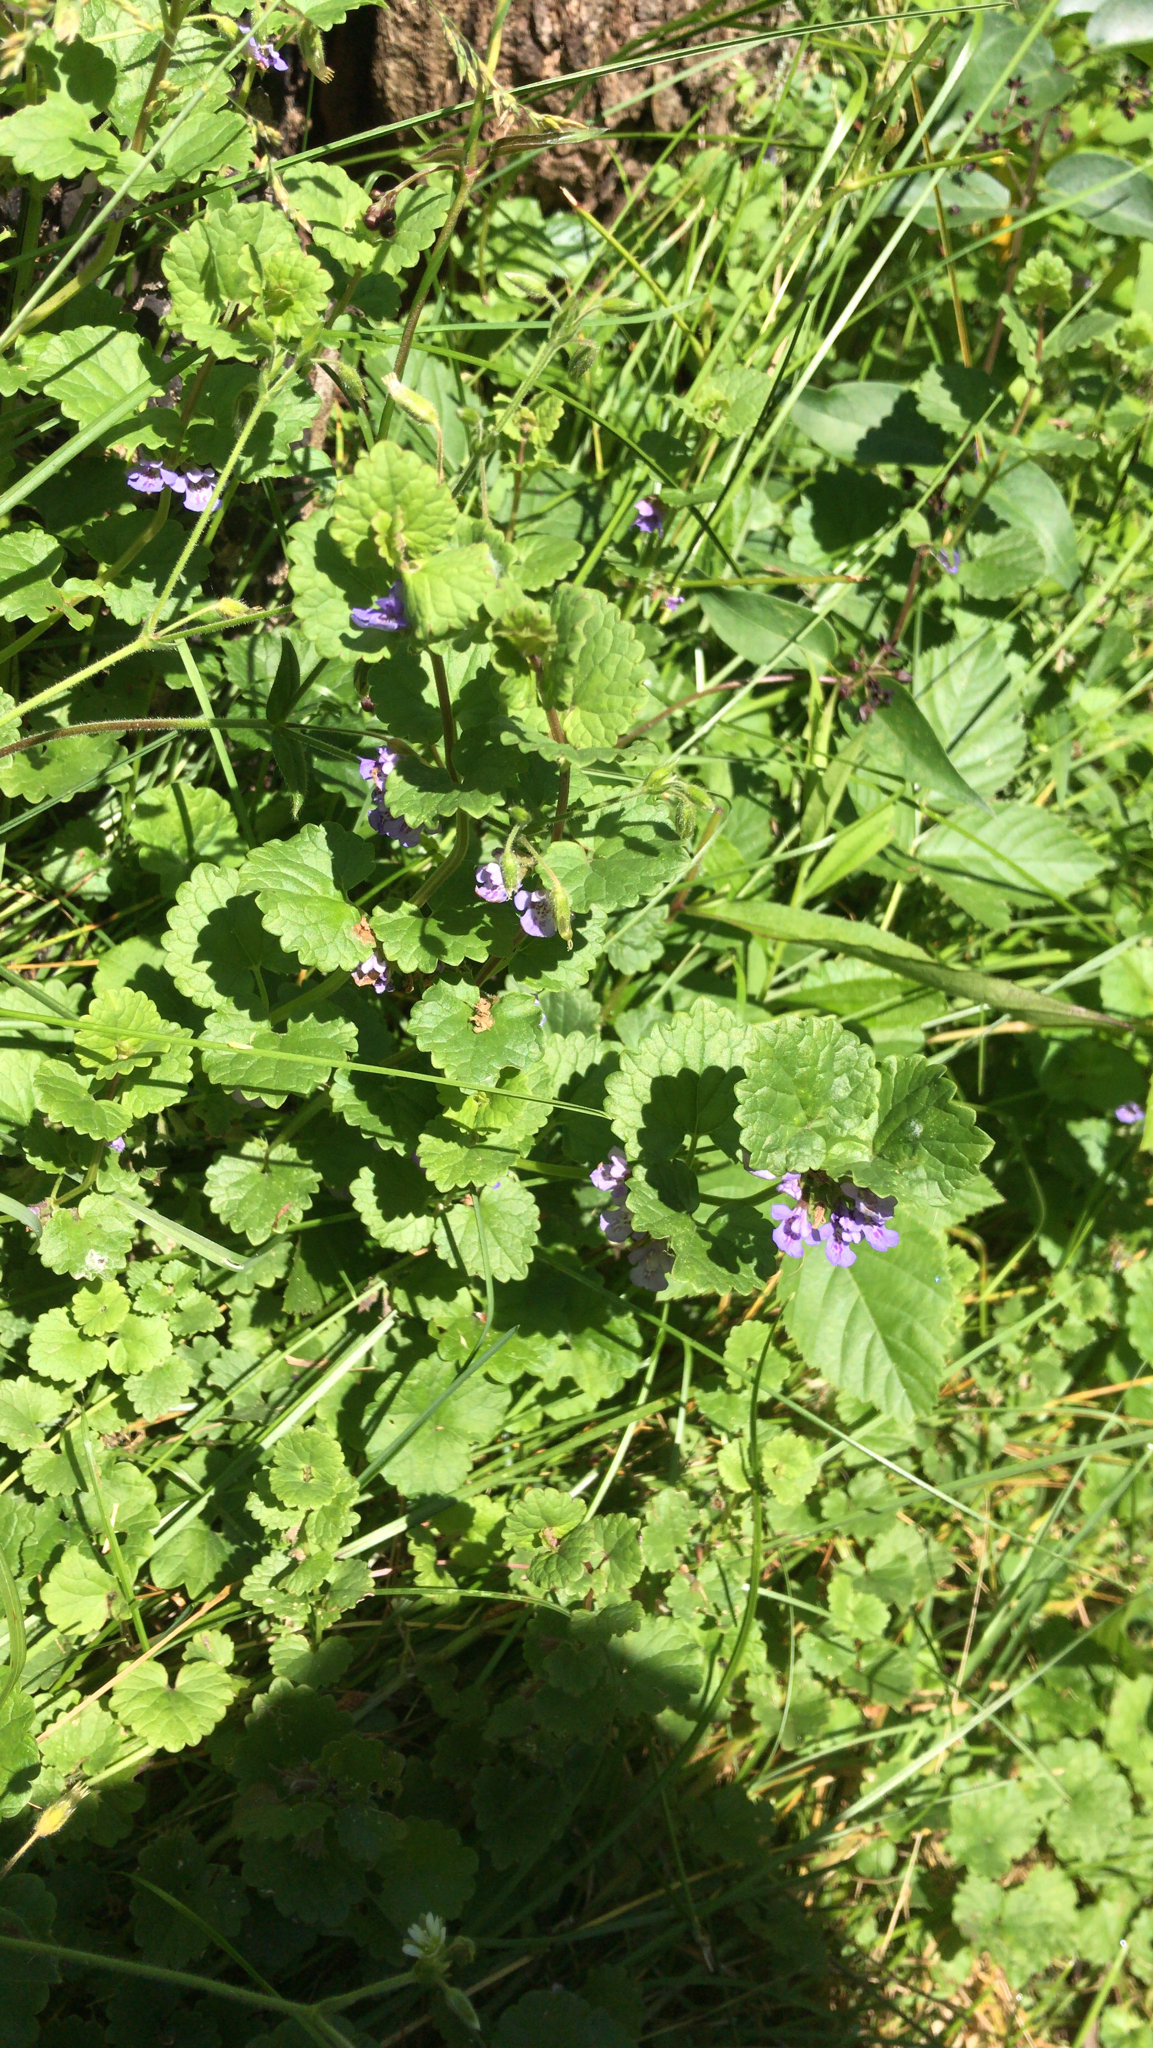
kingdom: Plantae
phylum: Tracheophyta
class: Magnoliopsida
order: Lamiales
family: Lamiaceae
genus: Glechoma
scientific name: Glechoma hederacea
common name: Ground ivy
